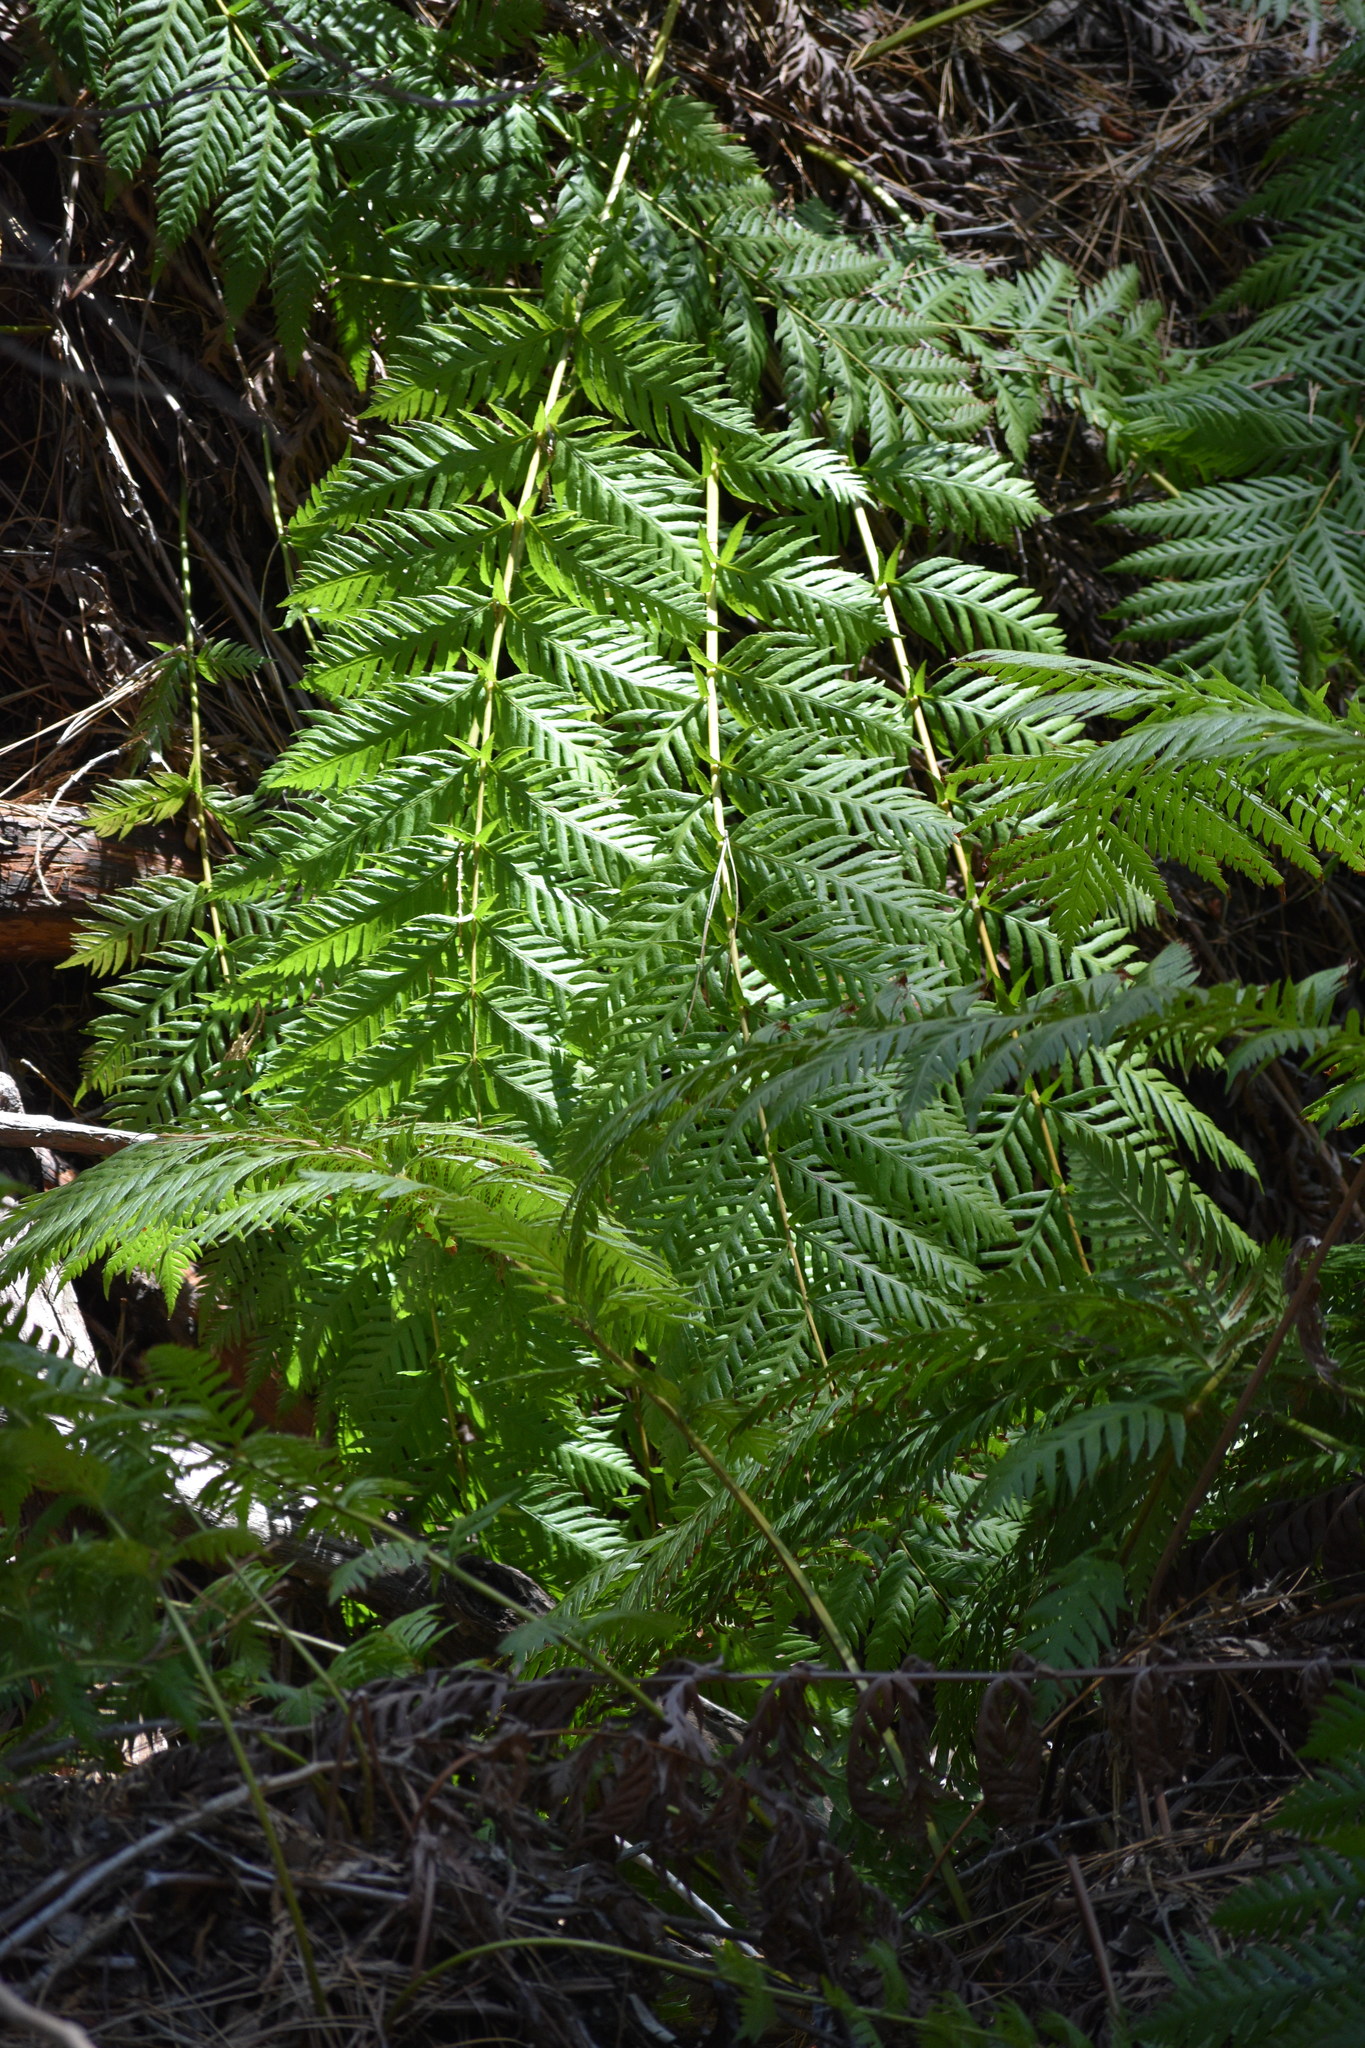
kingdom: Plantae
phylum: Tracheophyta
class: Polypodiopsida
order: Polypodiales
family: Blechnaceae
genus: Woodwardia
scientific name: Woodwardia fimbriata
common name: Giant chain fern
